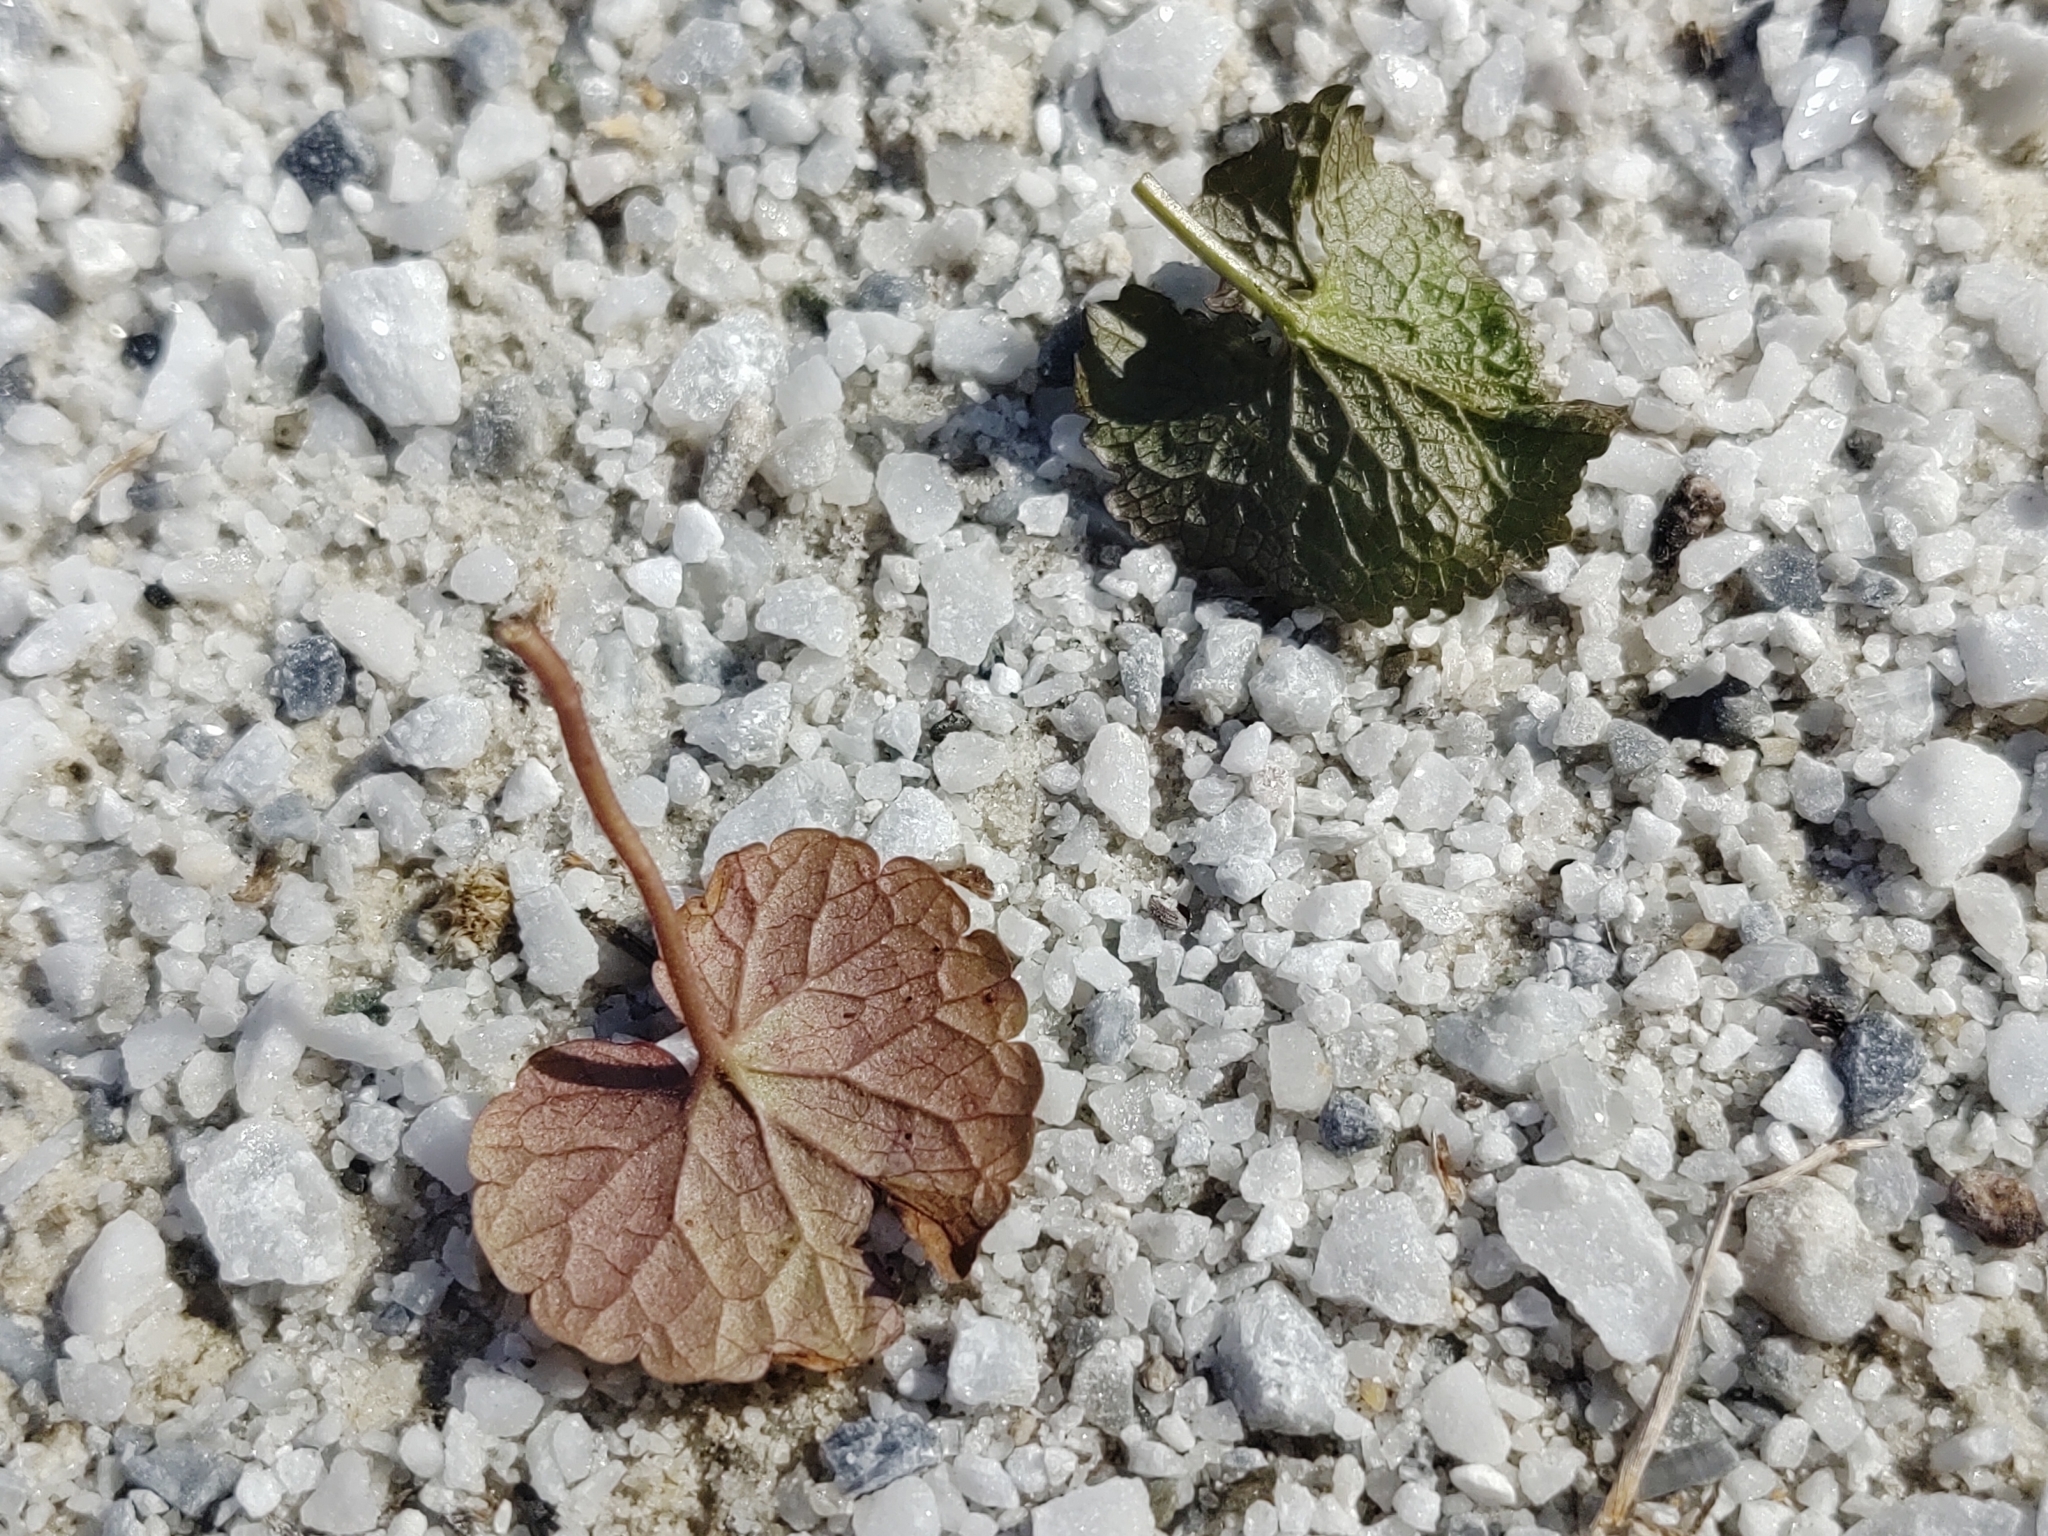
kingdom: Plantae
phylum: Tracheophyta
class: Magnoliopsida
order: Brassicales
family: Brassicaceae
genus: Alliaria
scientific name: Alliaria petiolata
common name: Garlic mustard
